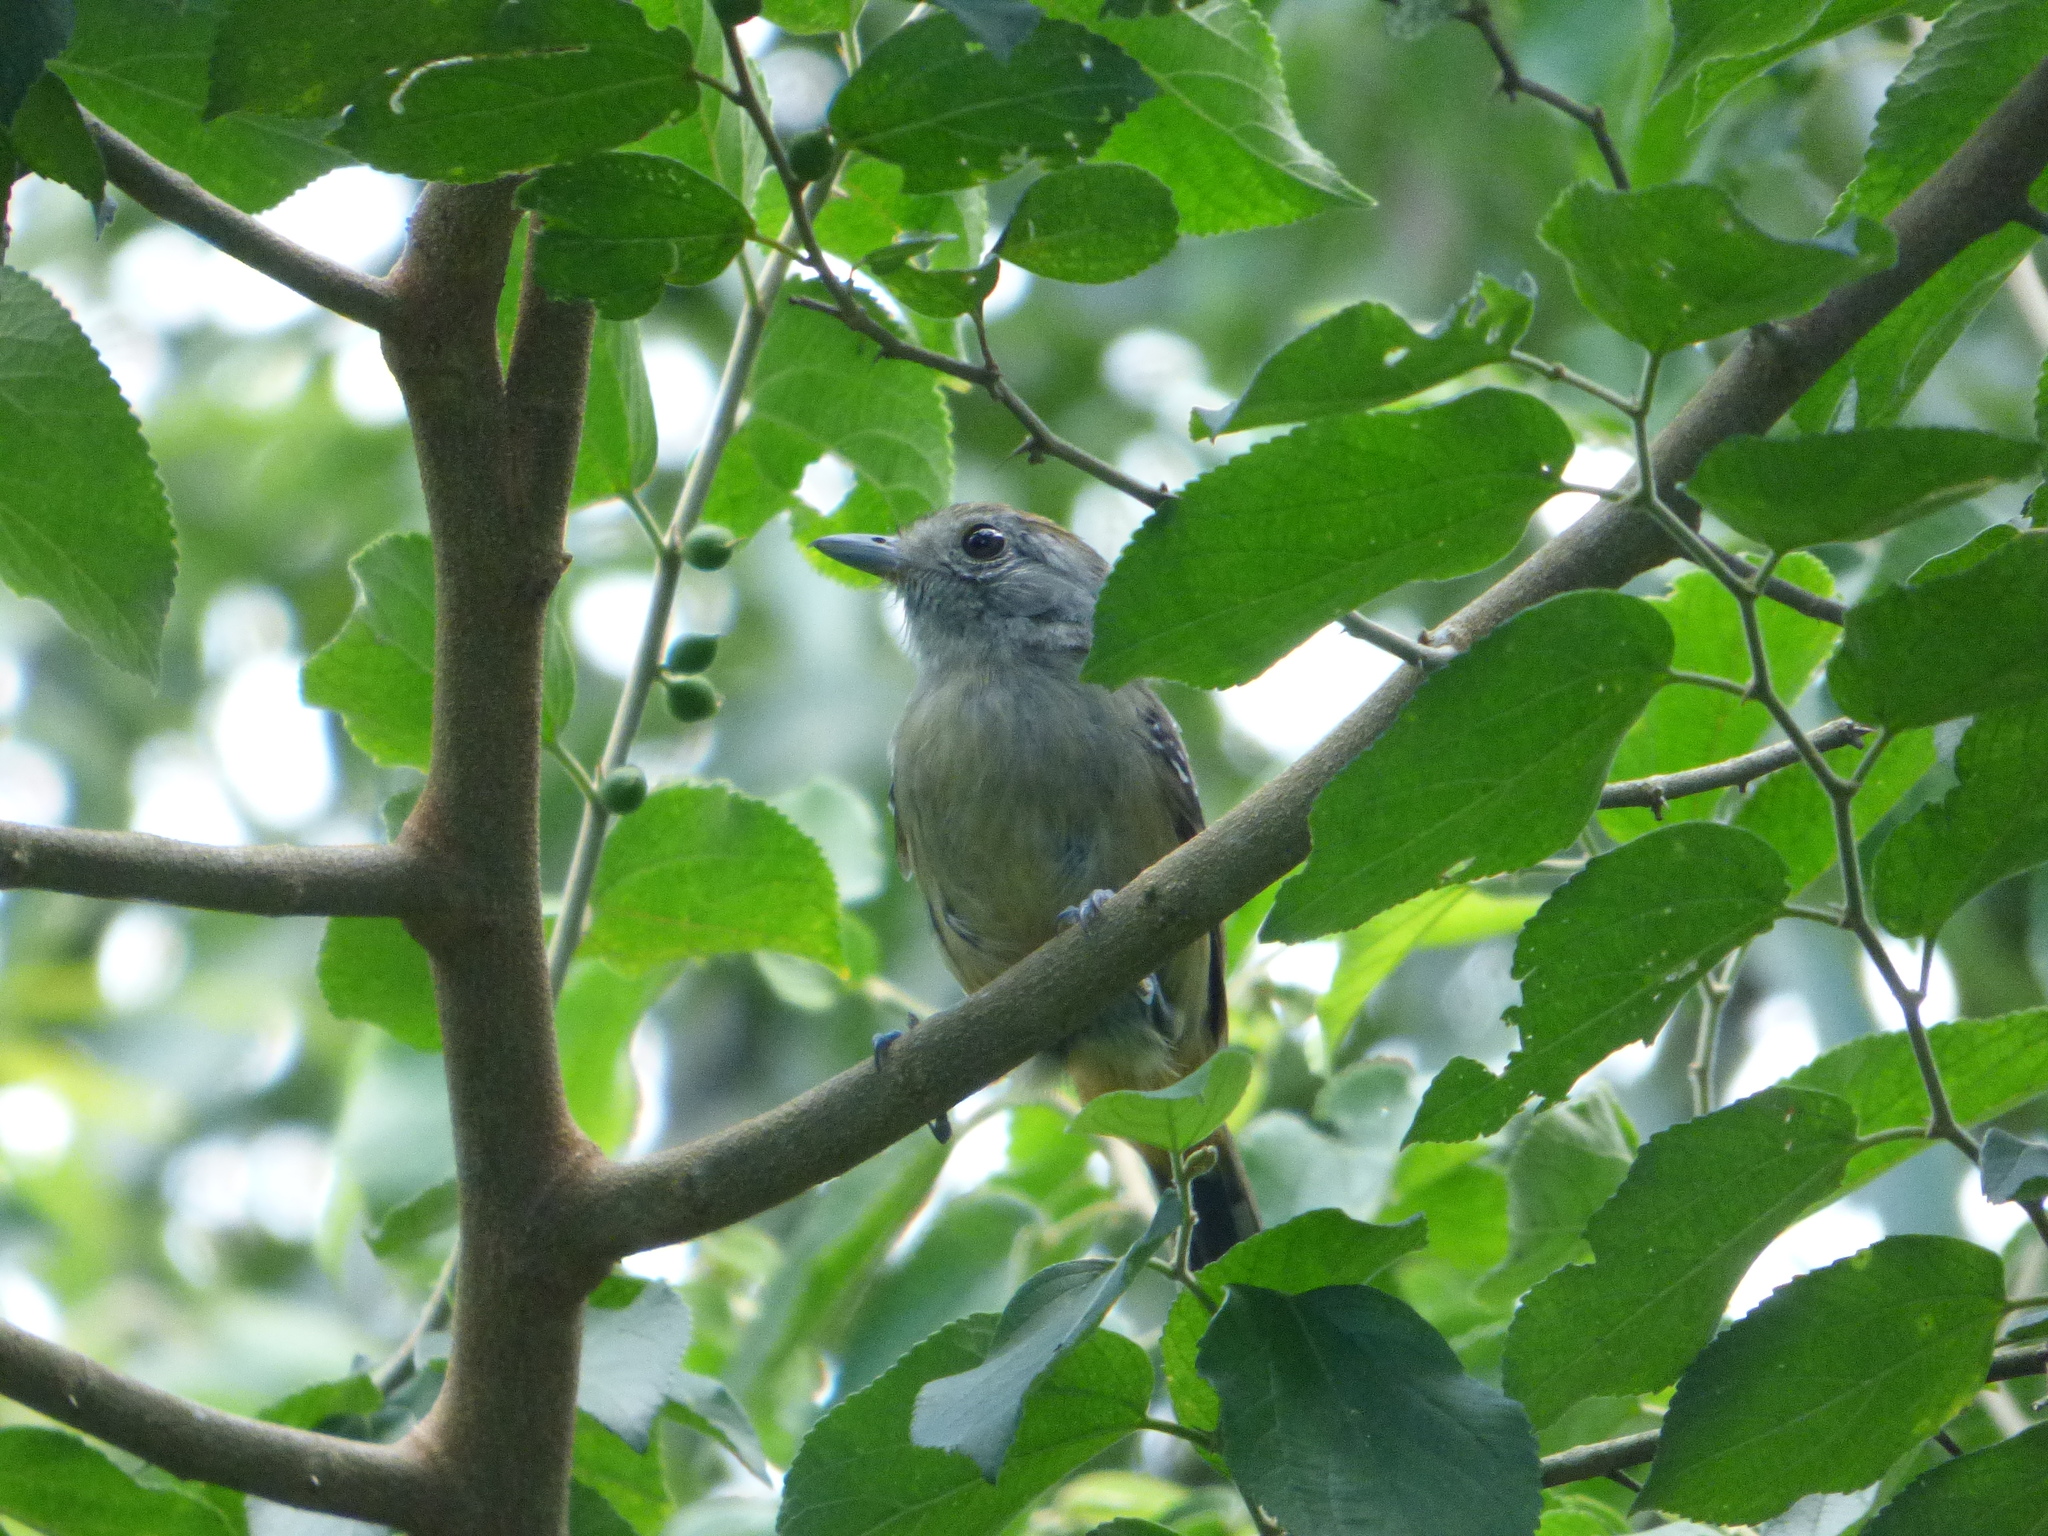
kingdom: Animalia
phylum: Chordata
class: Aves
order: Passeriformes
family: Thamnophilidae
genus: Thamnophilus
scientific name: Thamnophilus caerulescens
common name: Variable antshrike
